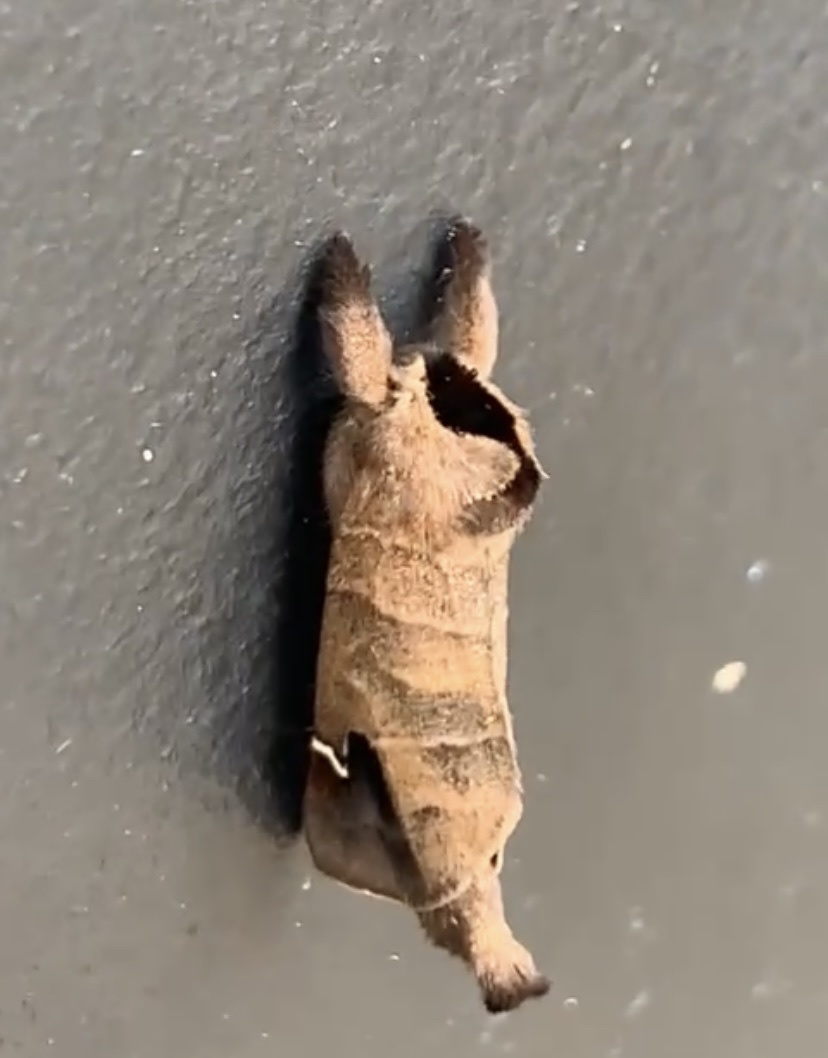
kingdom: Animalia
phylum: Arthropoda
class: Insecta
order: Lepidoptera
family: Notodontidae
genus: Clostera
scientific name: Clostera albosigma
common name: Sigmoid prominent
